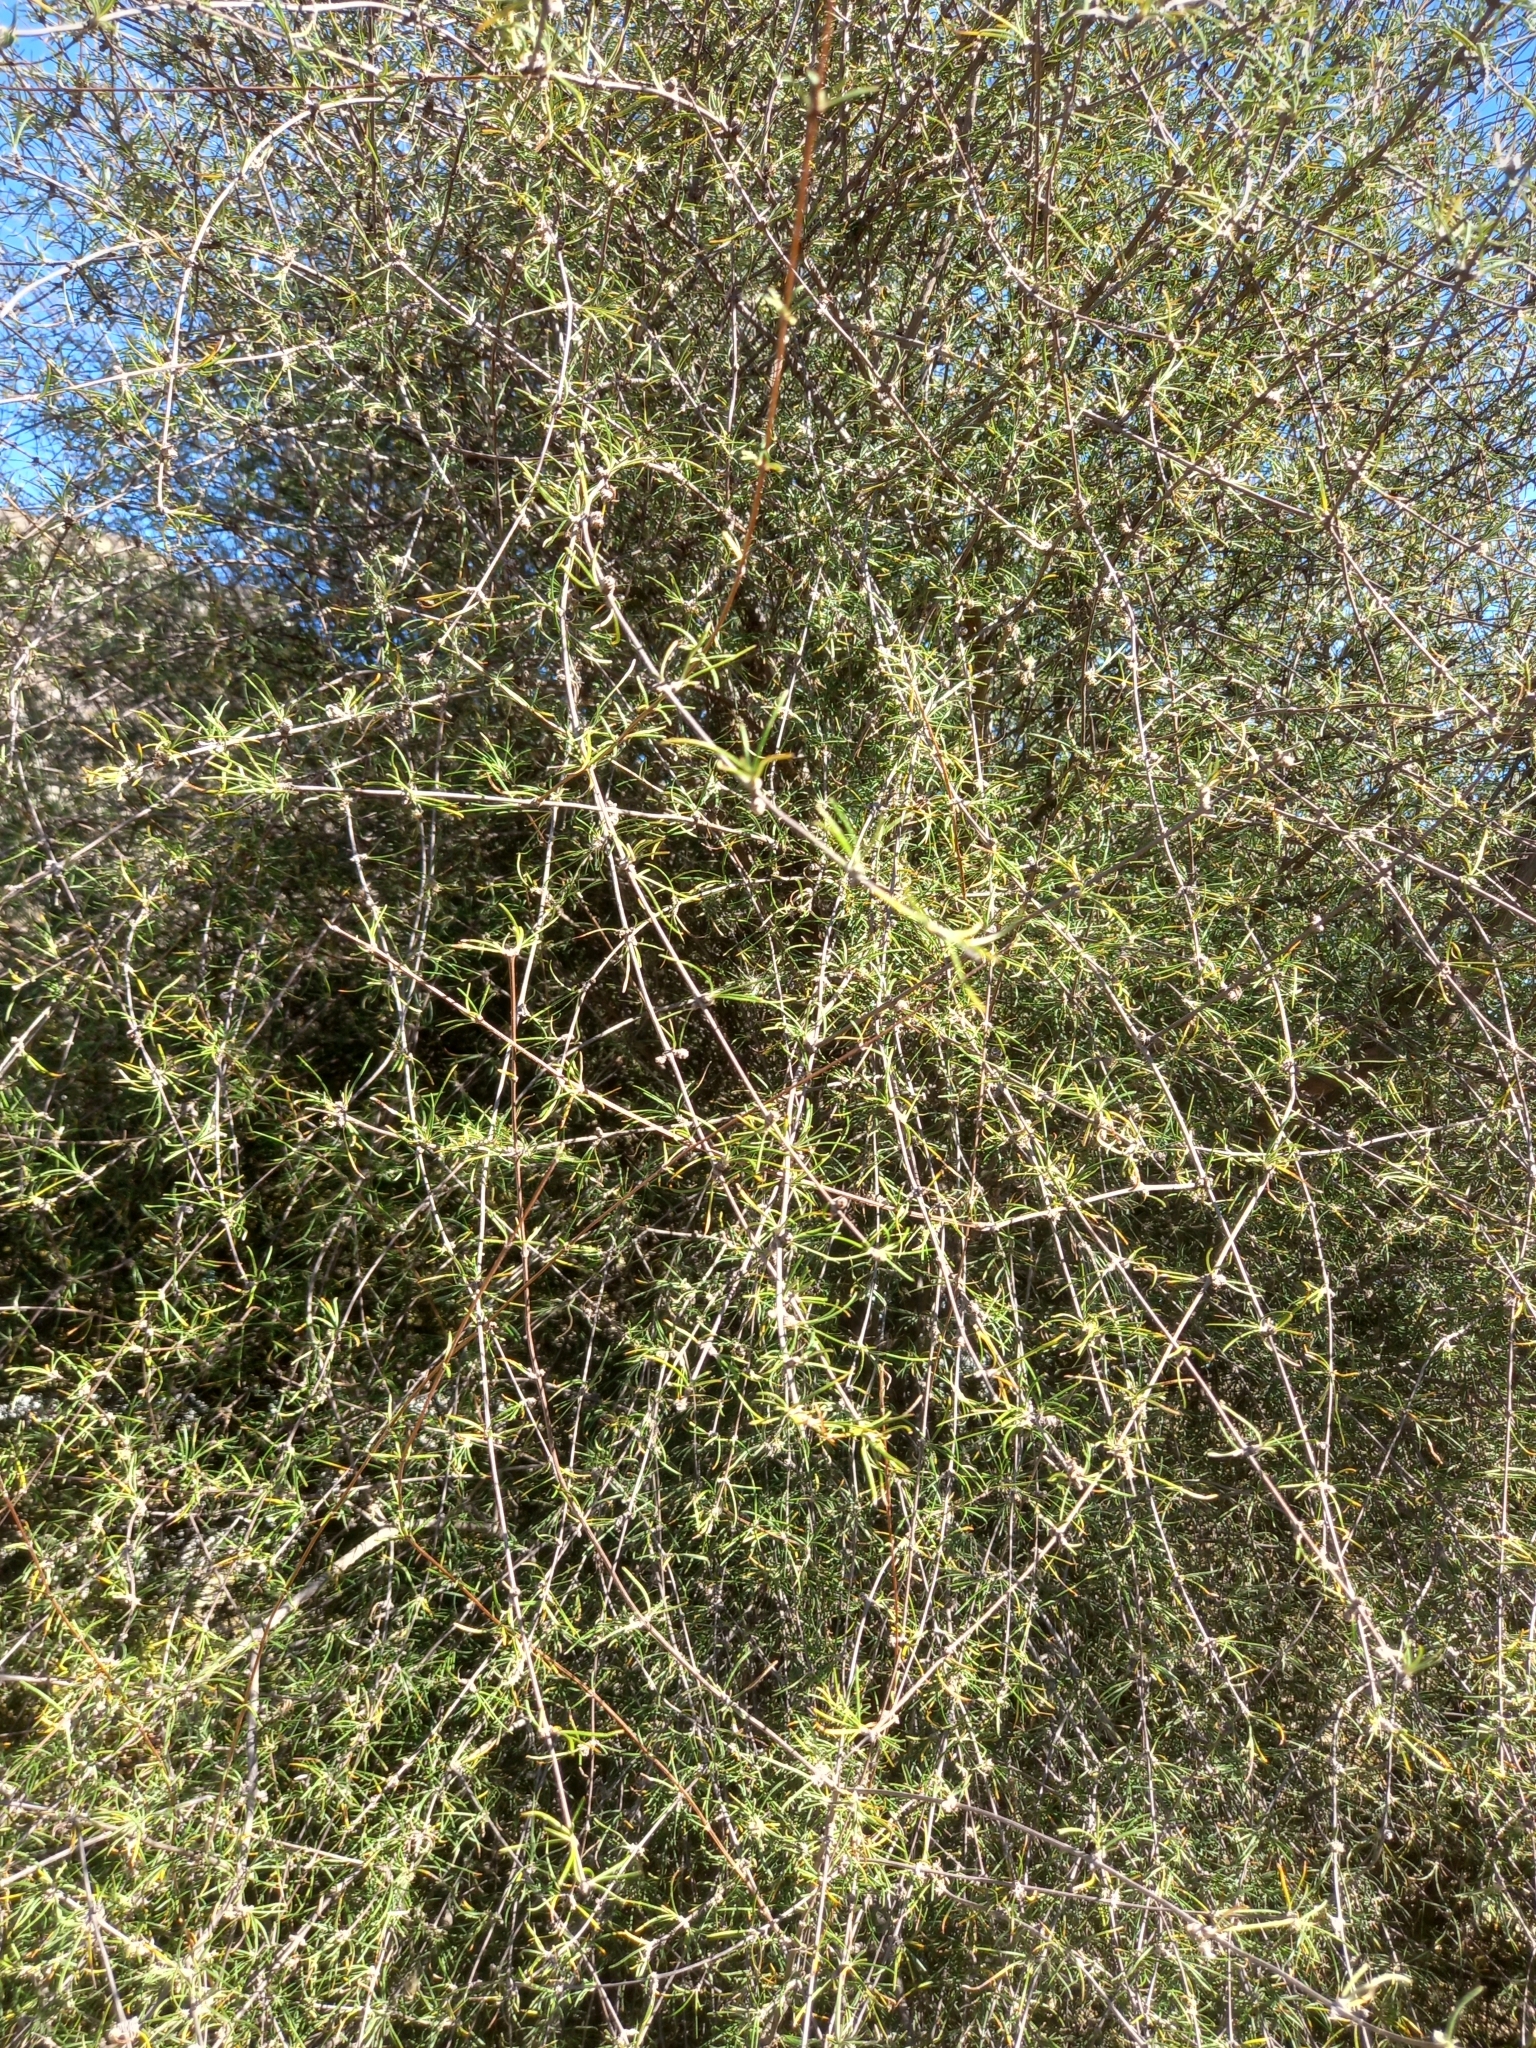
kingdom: Plantae
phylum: Tracheophyta
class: Magnoliopsida
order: Asterales
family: Asteraceae
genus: Olearia
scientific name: Olearia lineata
